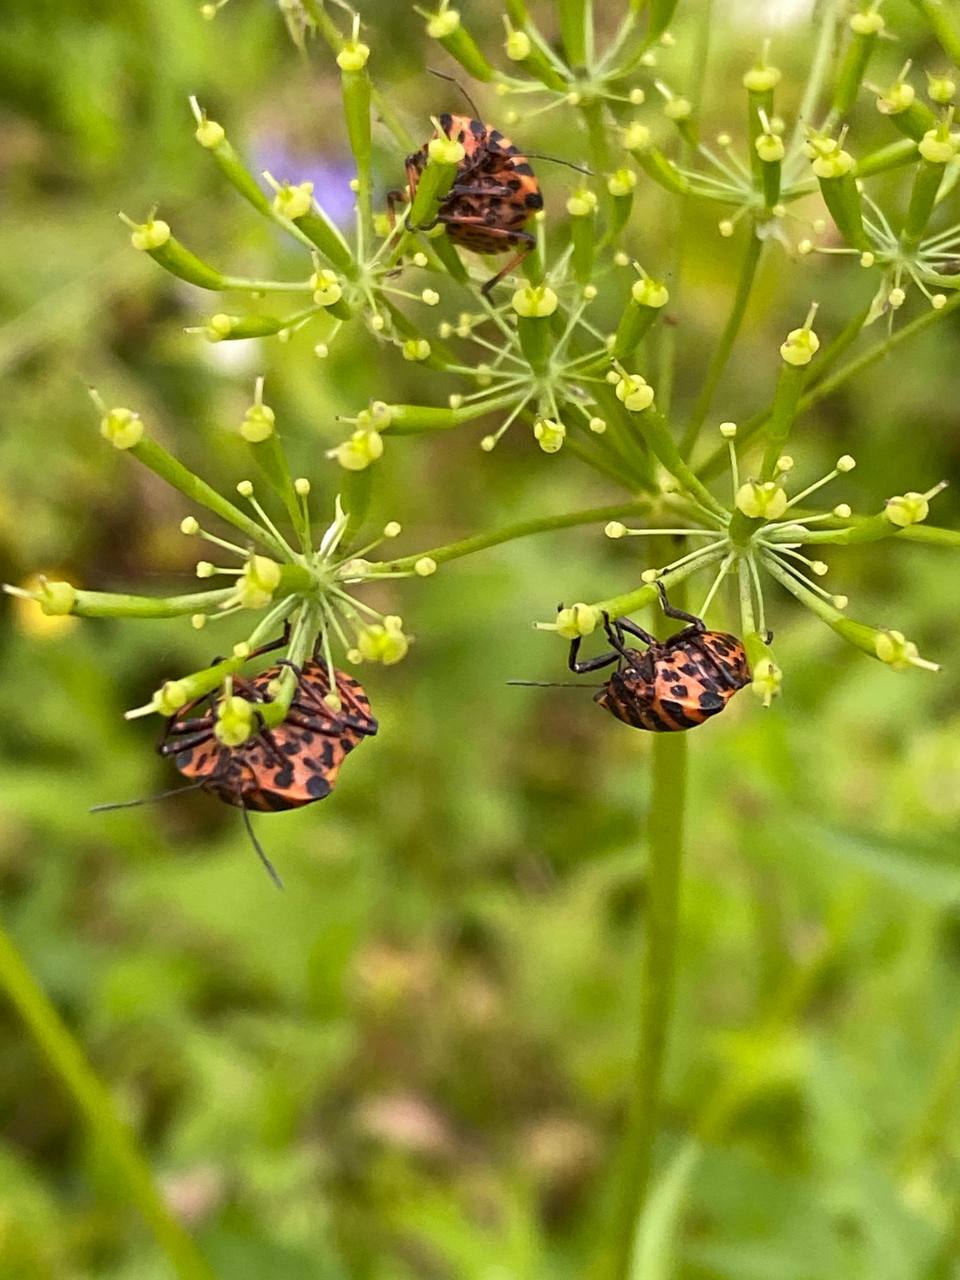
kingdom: Animalia
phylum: Arthropoda
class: Insecta
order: Hemiptera
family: Pentatomidae
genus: Graphosoma
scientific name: Graphosoma italicum
